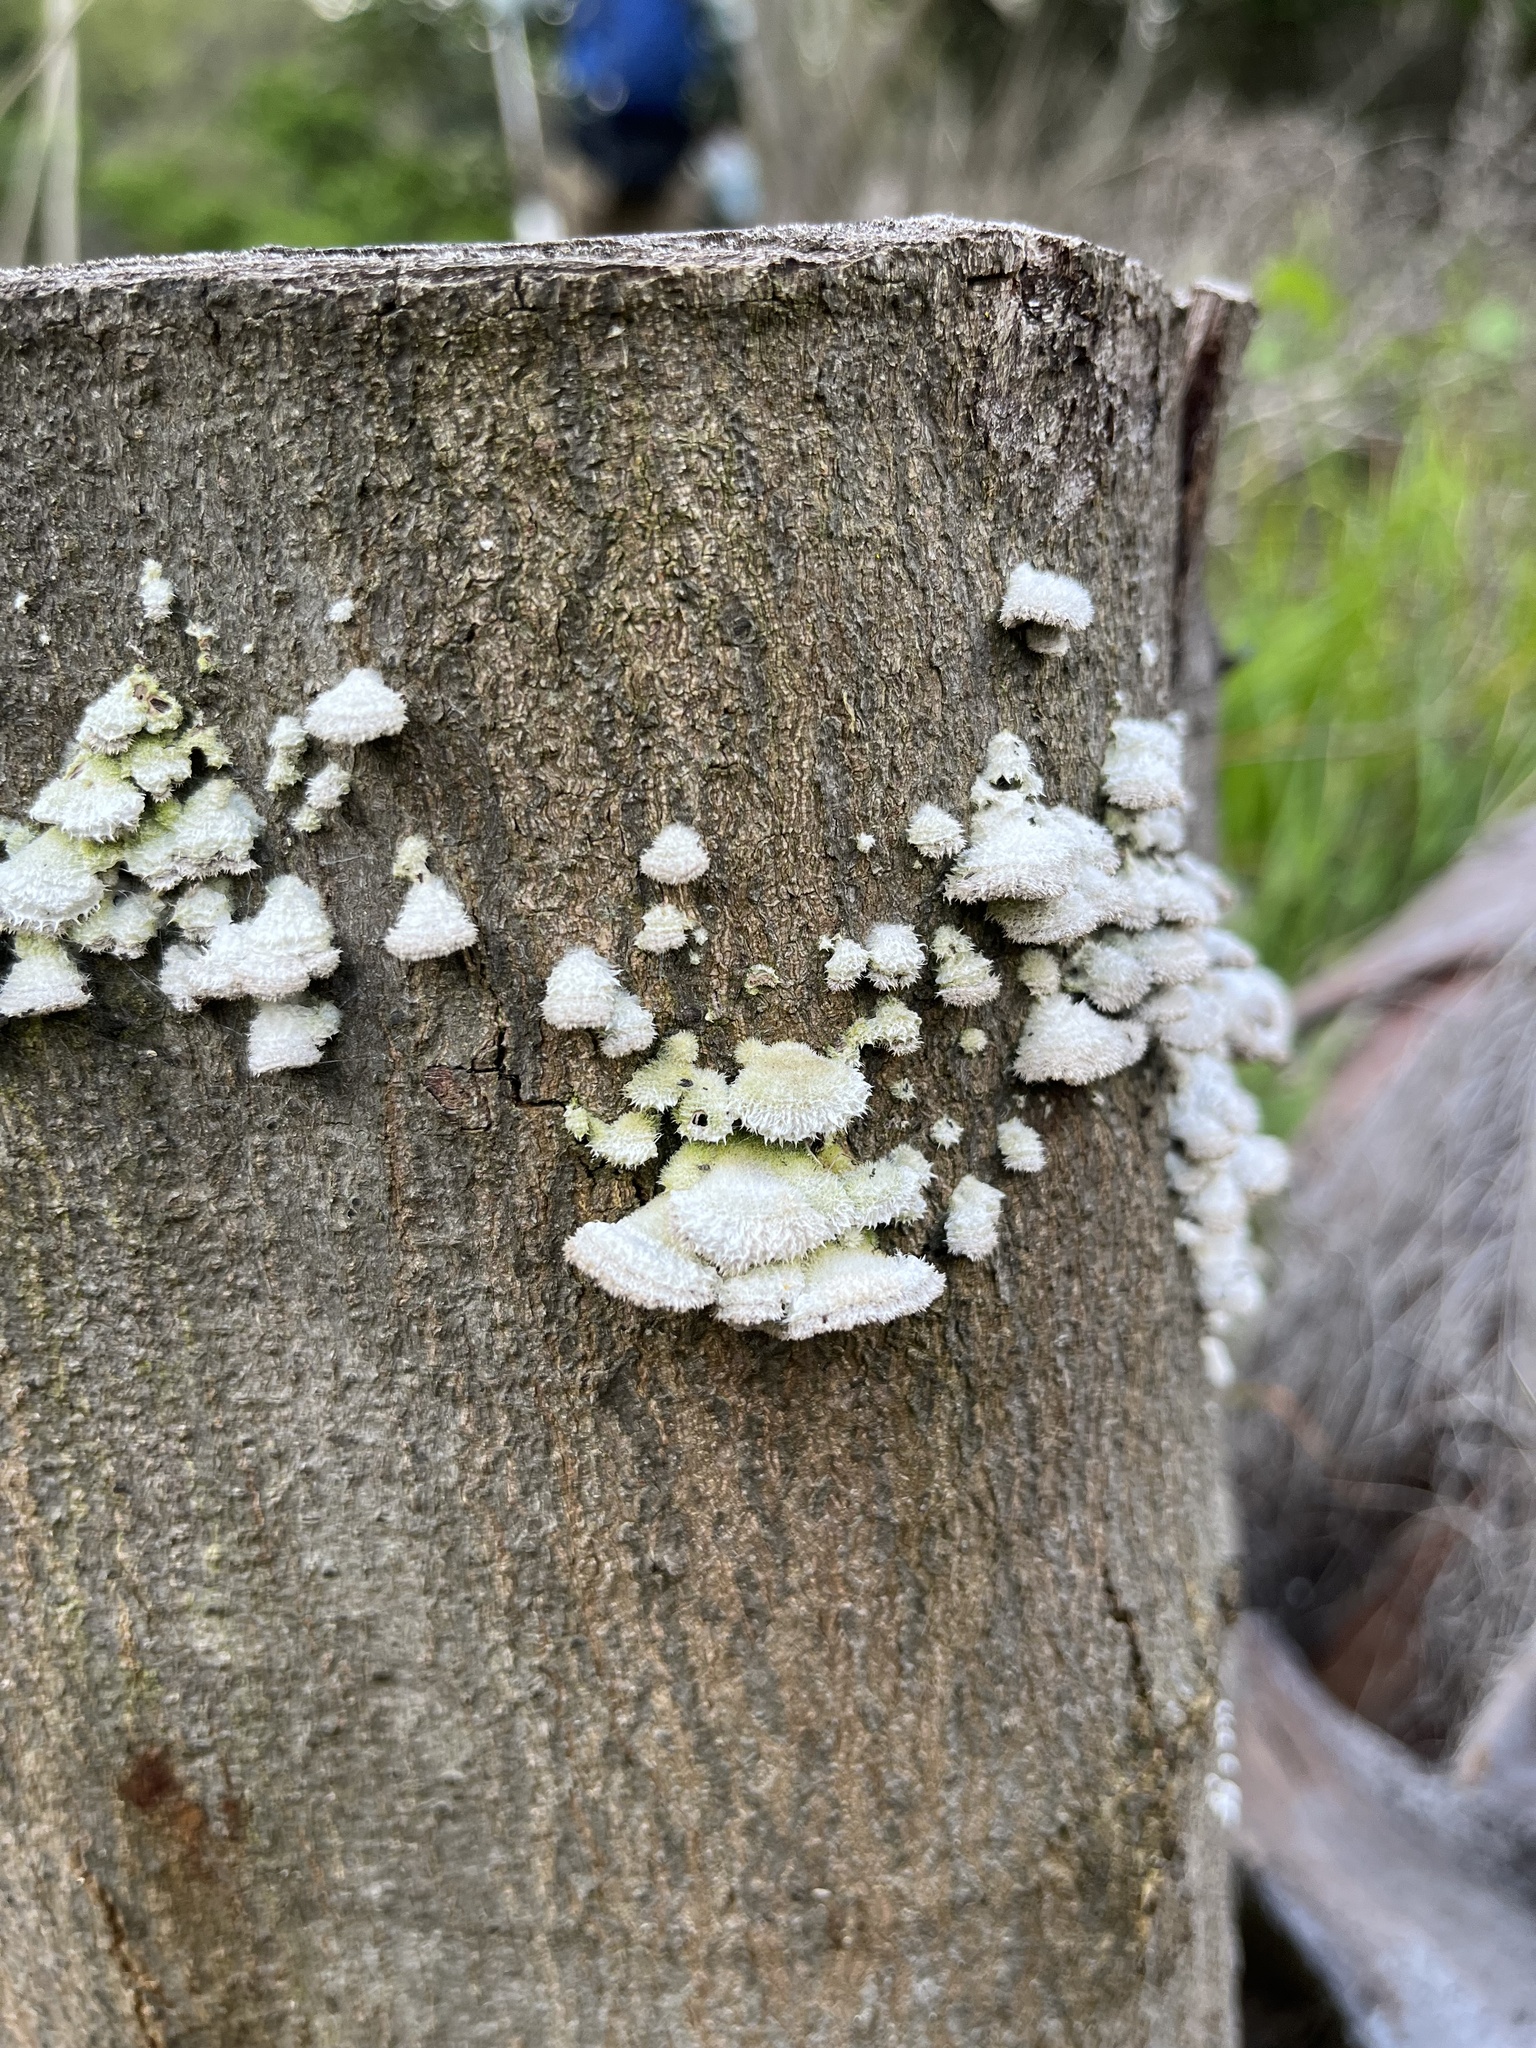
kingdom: Fungi
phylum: Basidiomycota
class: Agaricomycetes
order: Agaricales
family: Schizophyllaceae
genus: Schizophyllum
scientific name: Schizophyllum commune
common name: Common porecrust
